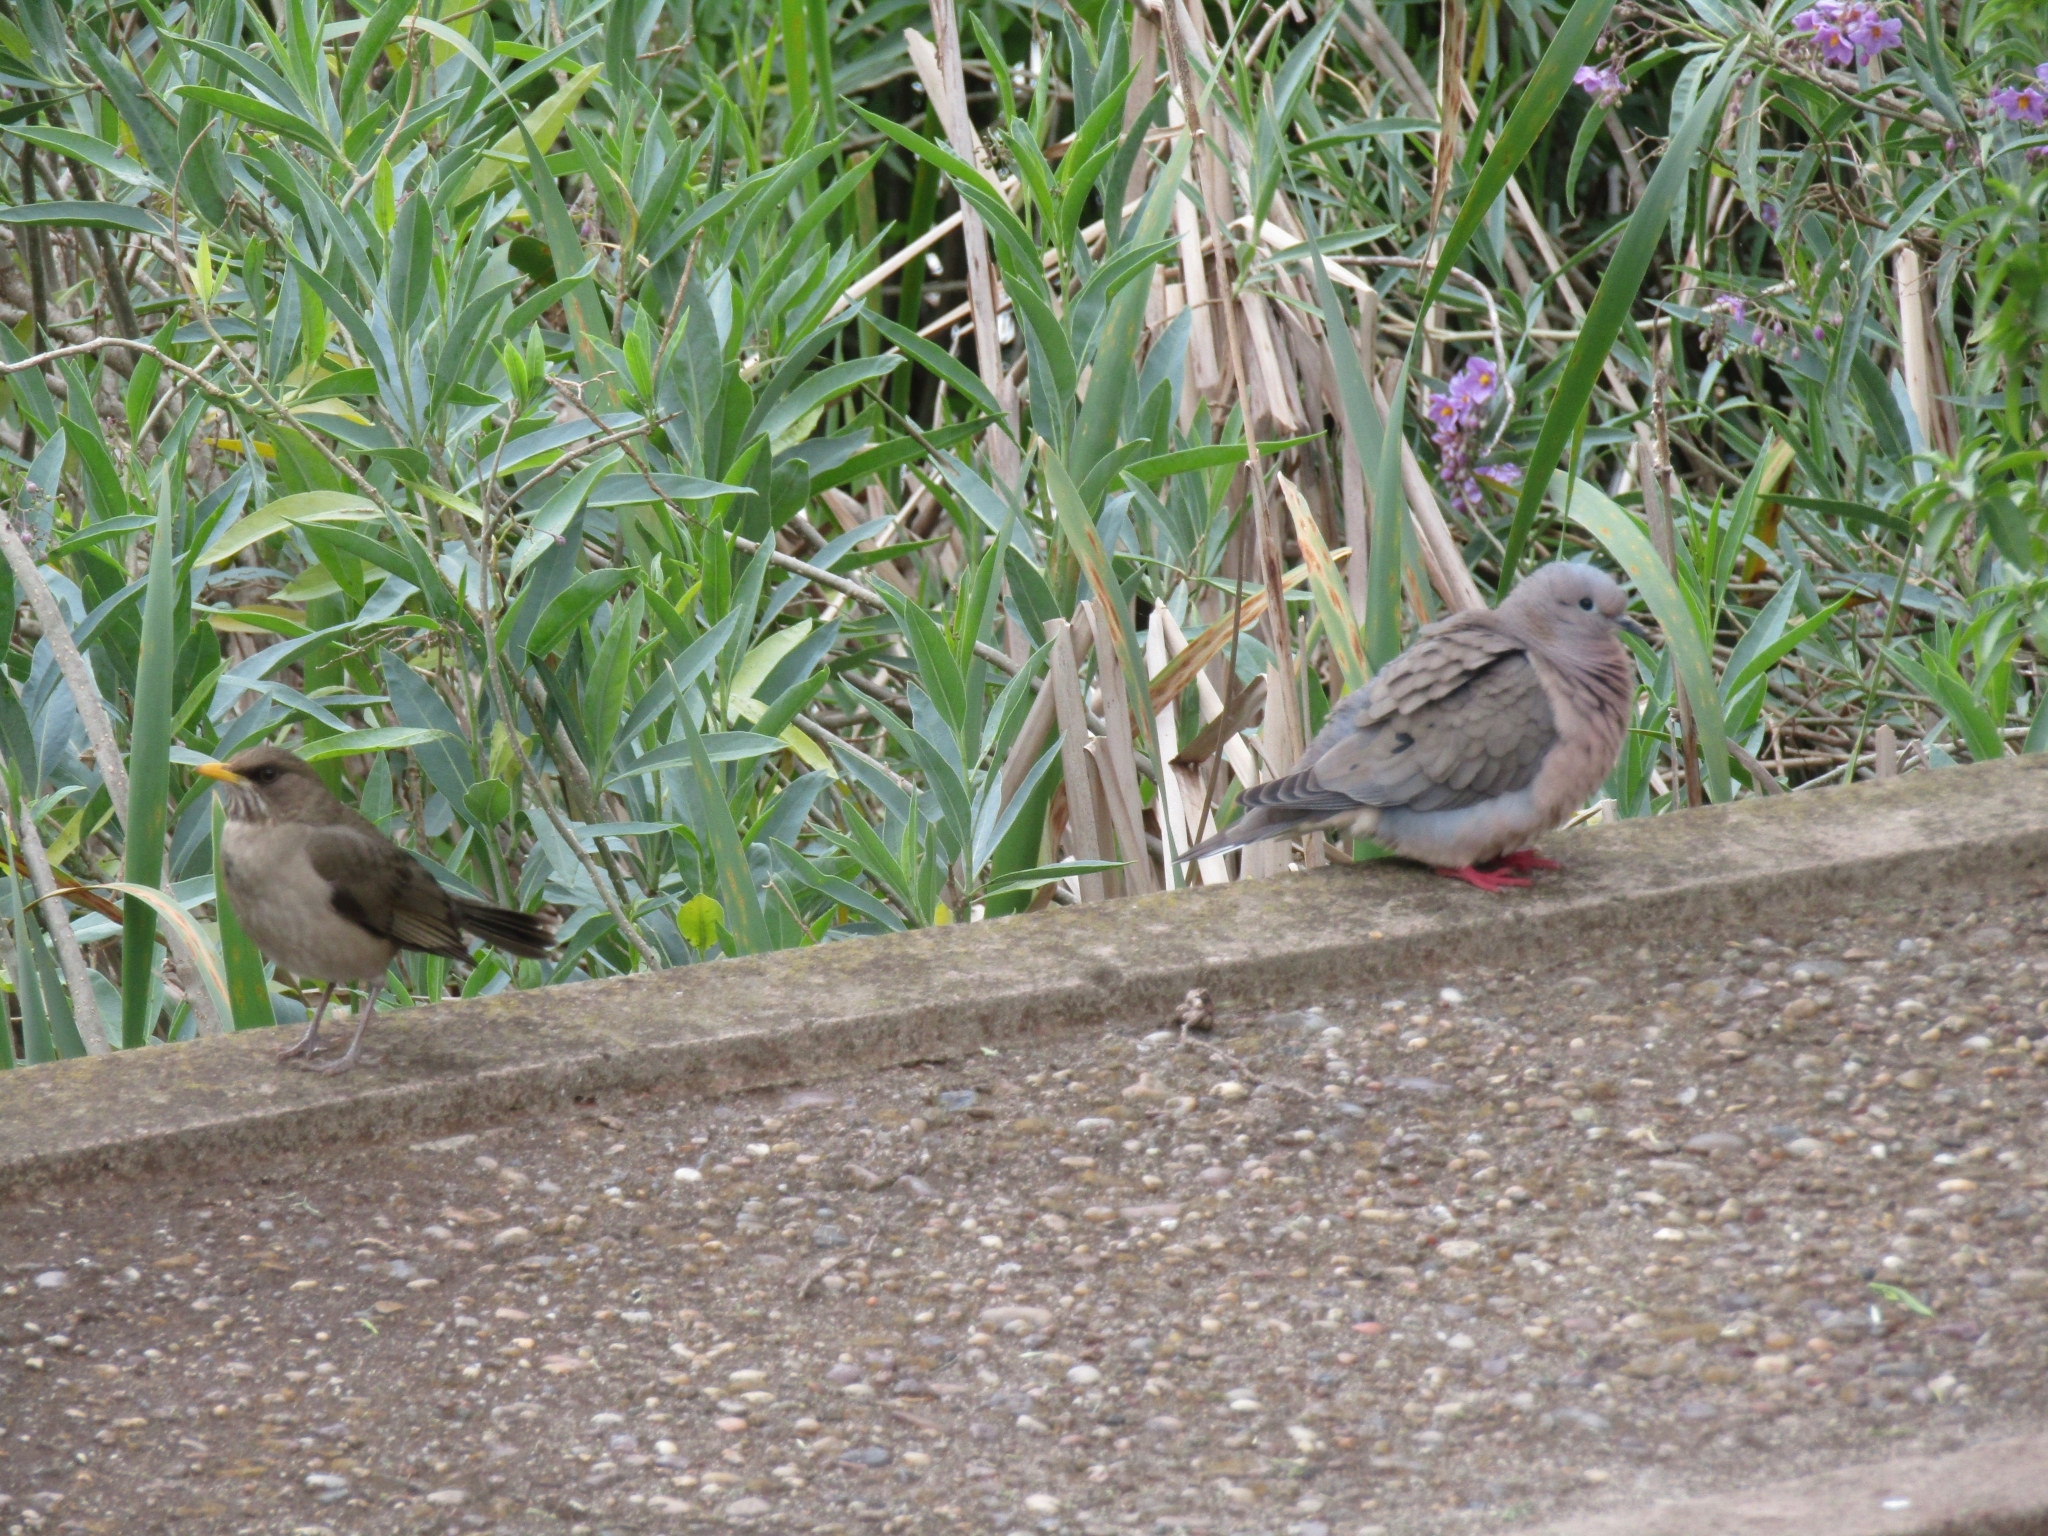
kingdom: Animalia
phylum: Chordata
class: Aves
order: Columbiformes
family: Columbidae
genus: Zenaida
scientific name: Zenaida auriculata
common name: Eared dove
